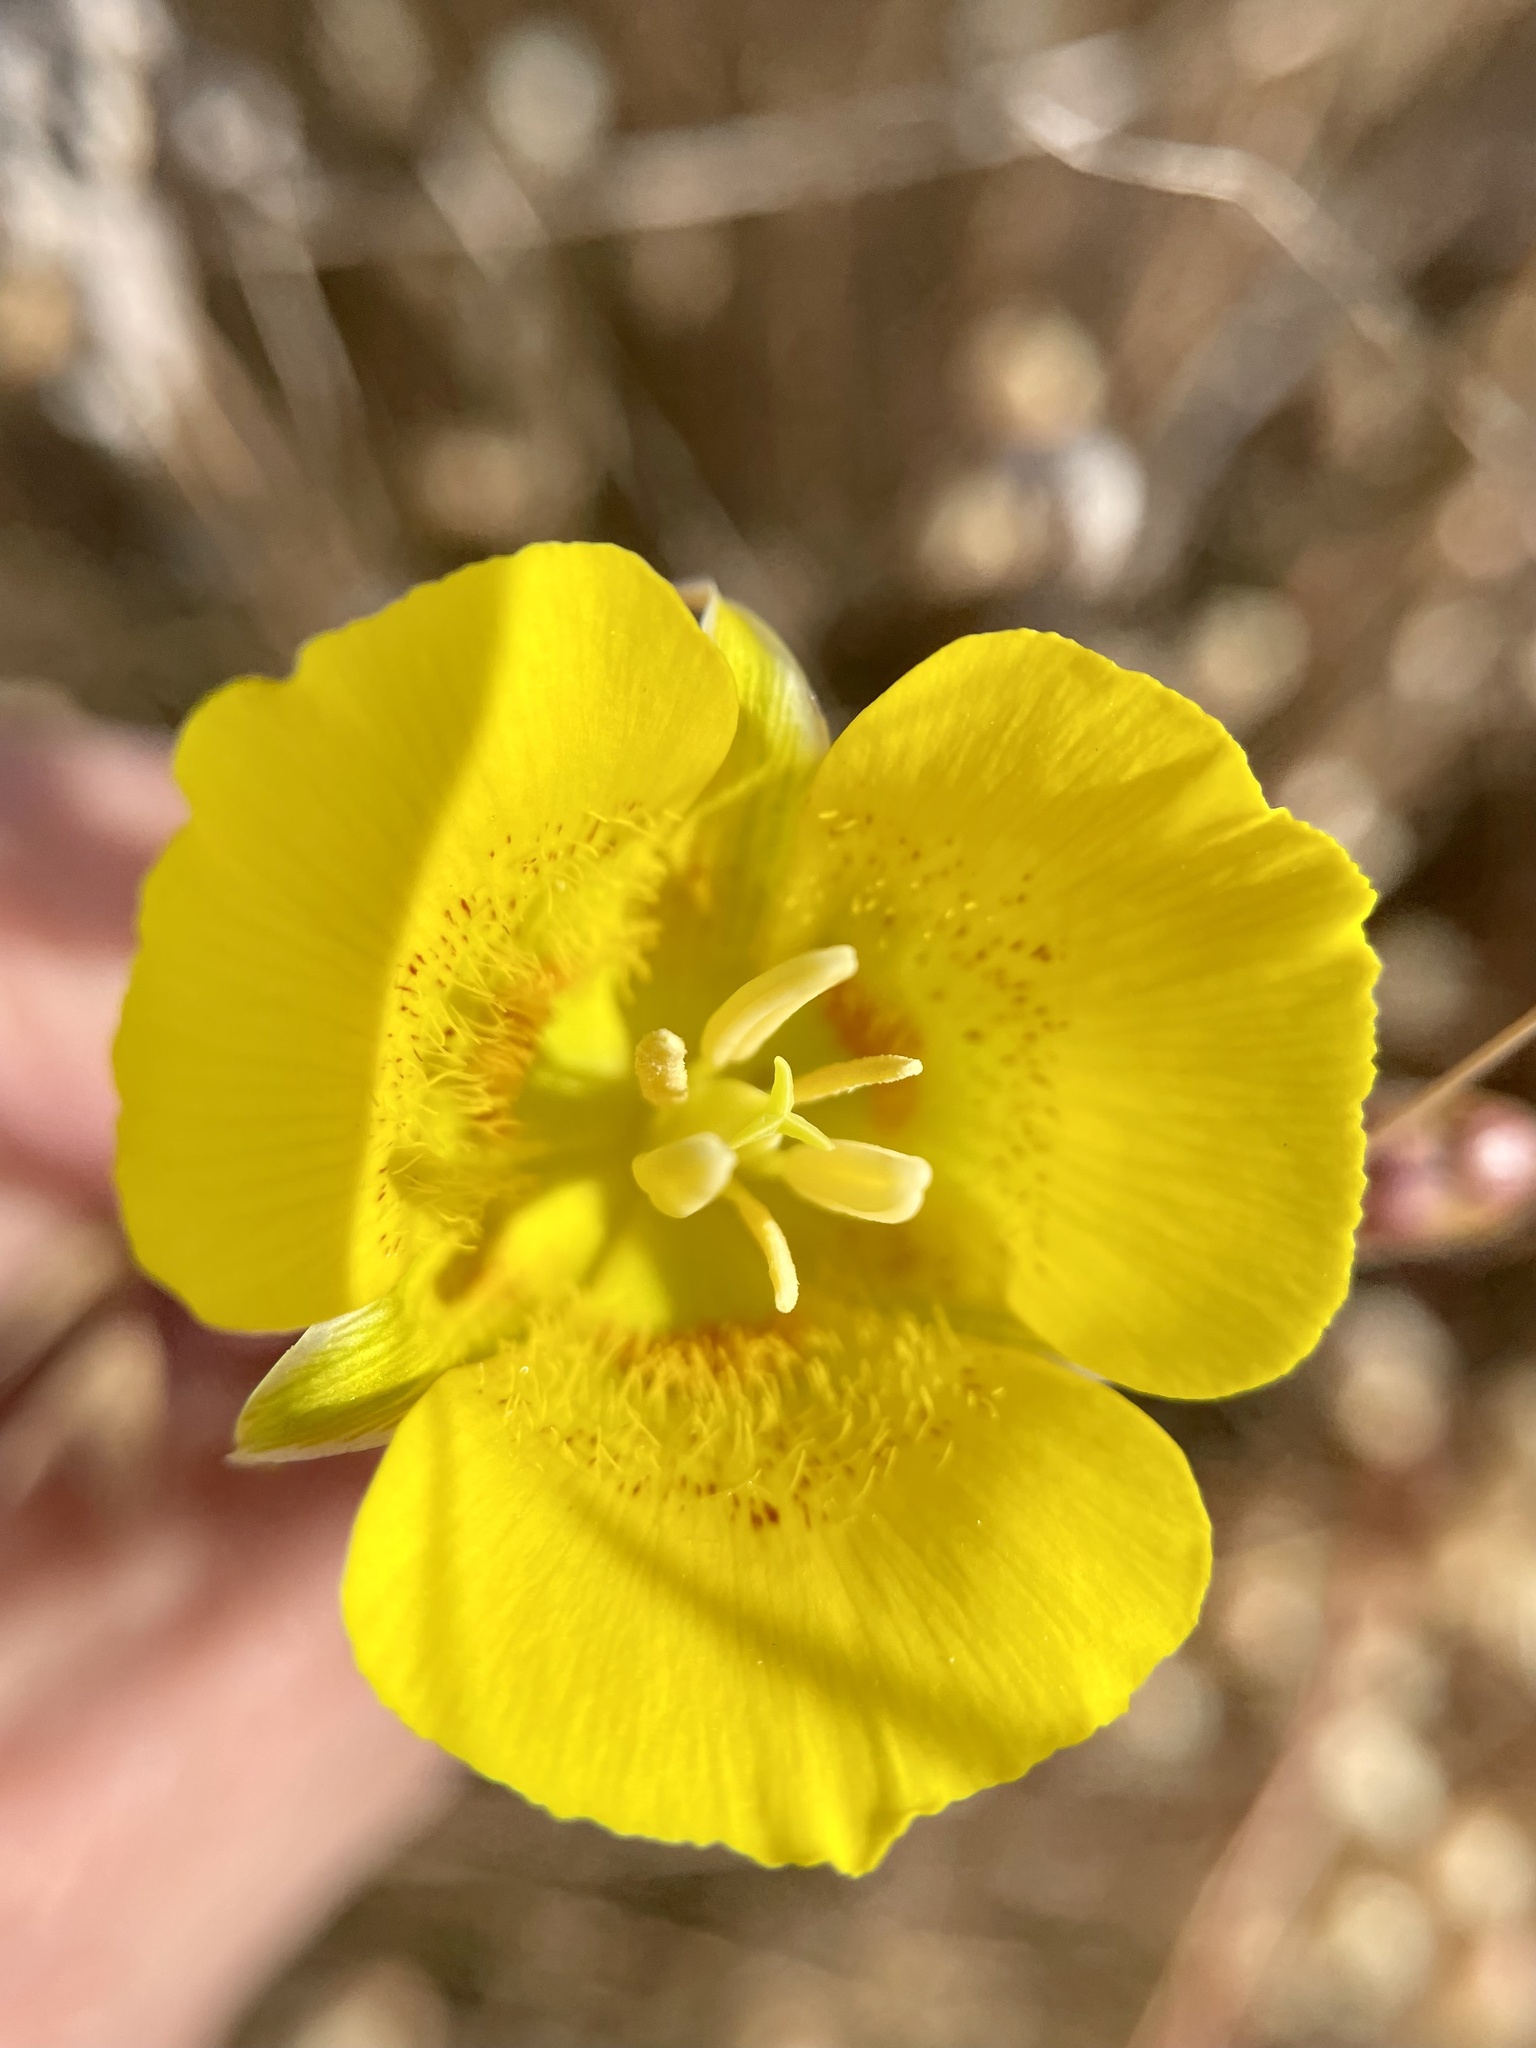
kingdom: Plantae
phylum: Tracheophyta
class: Liliopsida
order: Liliales
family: Liliaceae
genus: Calochortus
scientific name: Calochortus luteus
